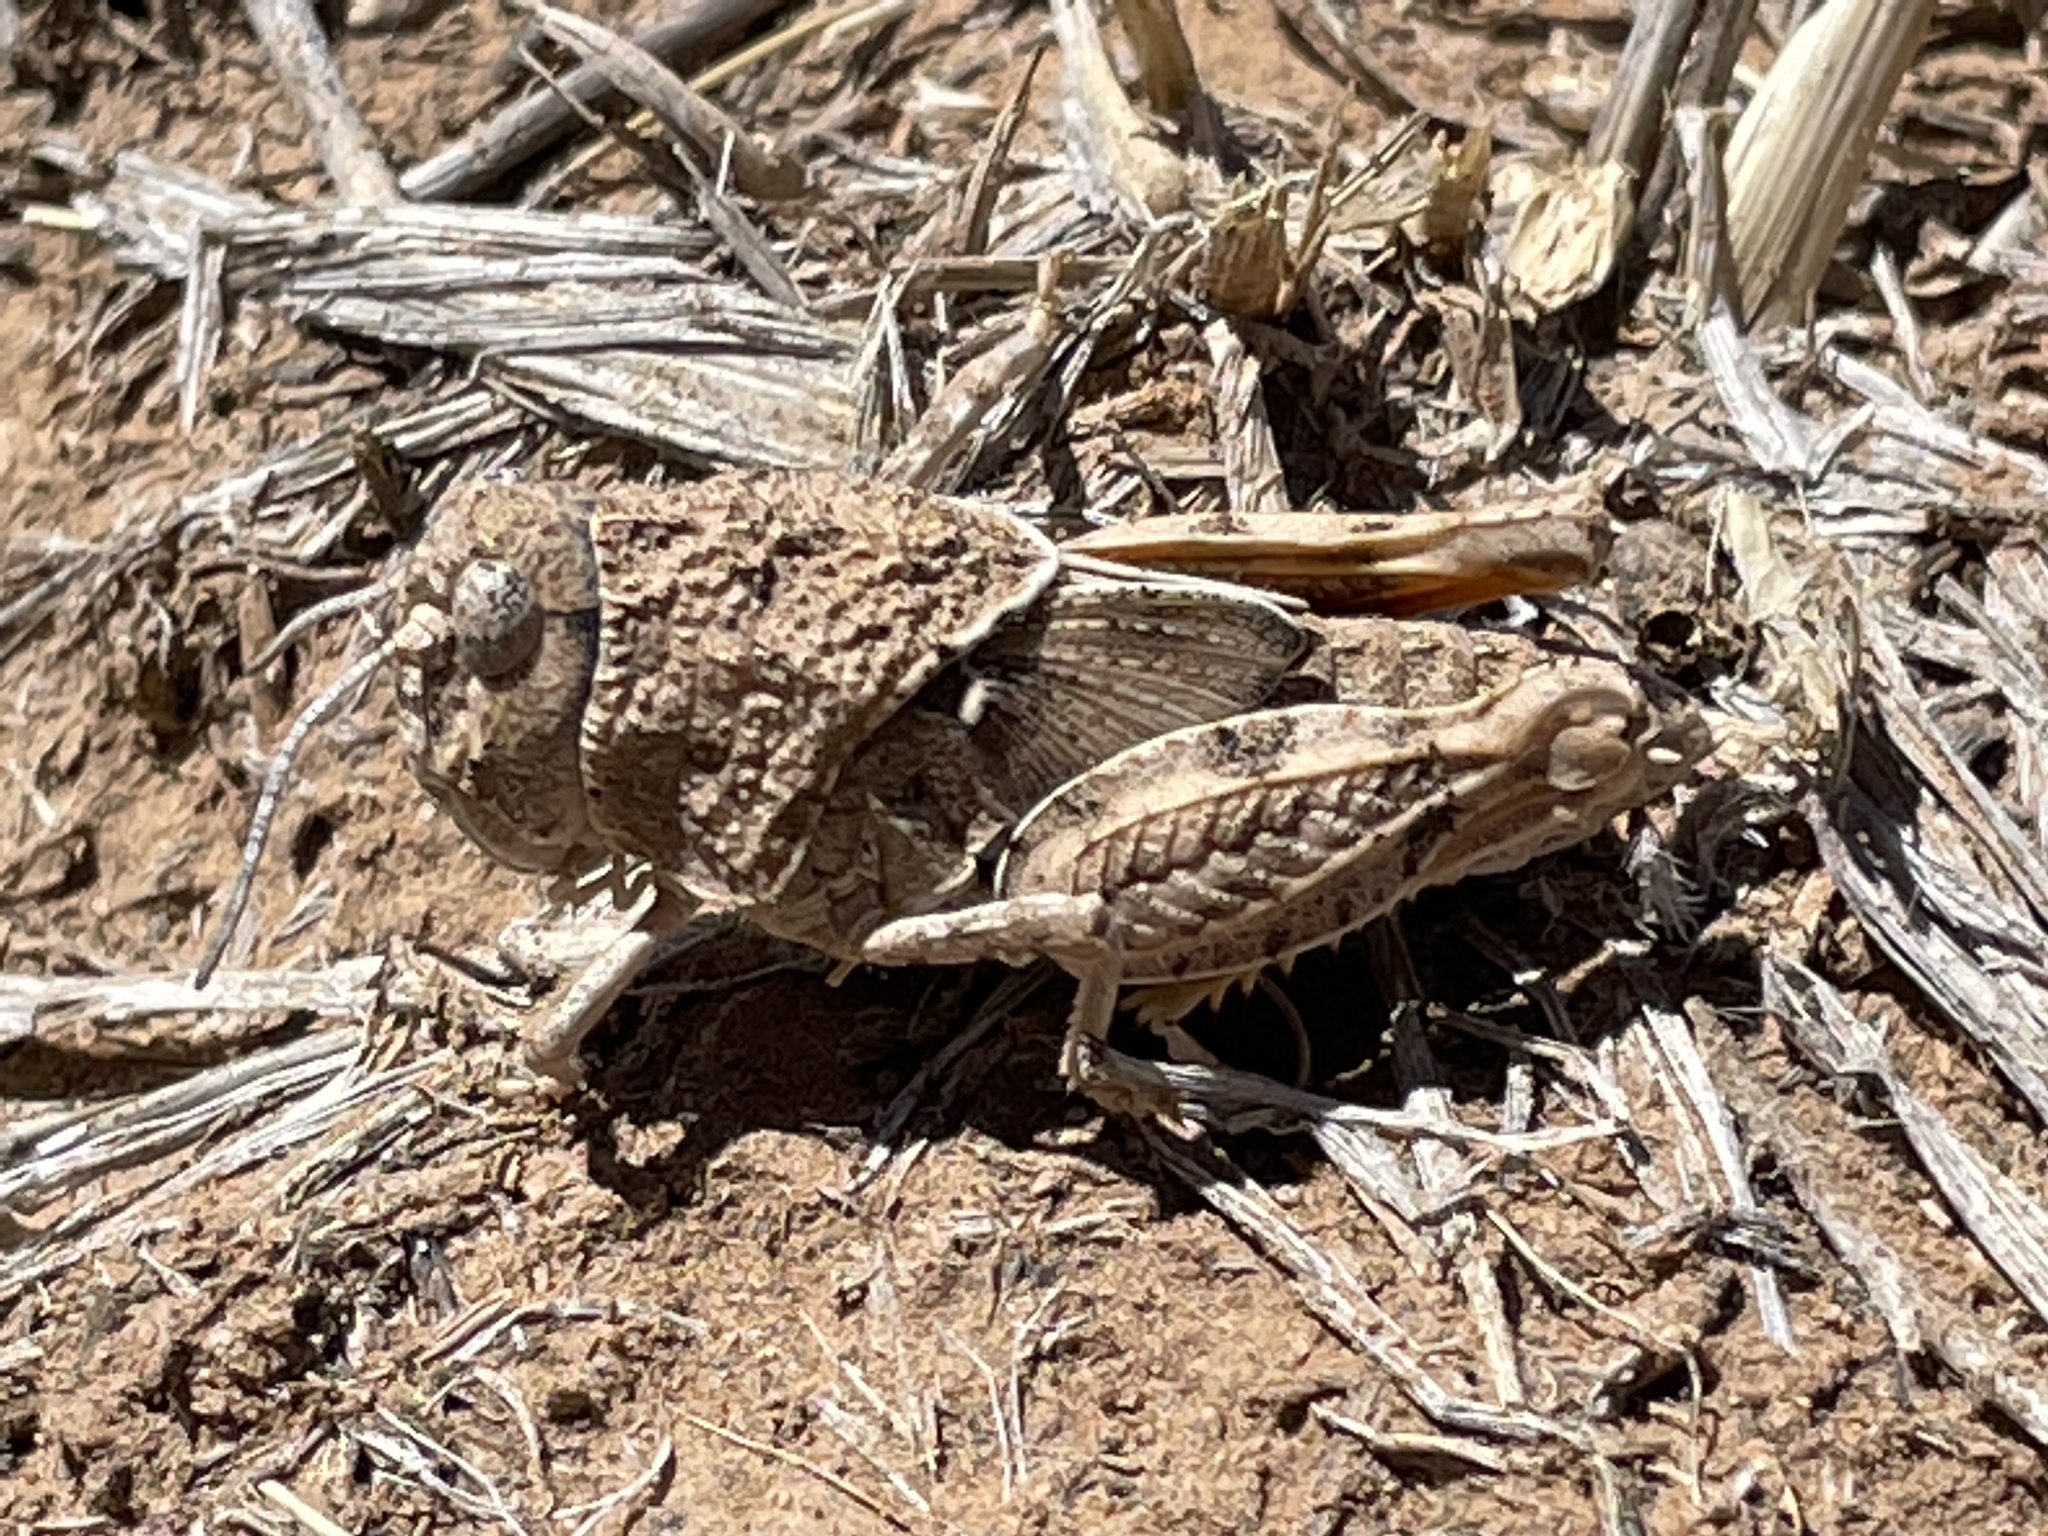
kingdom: Animalia
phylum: Arthropoda
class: Insecta
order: Orthoptera
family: Acrididae
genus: Xanthippus
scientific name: Xanthippus corallipes
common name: Redshanked grasshopper
